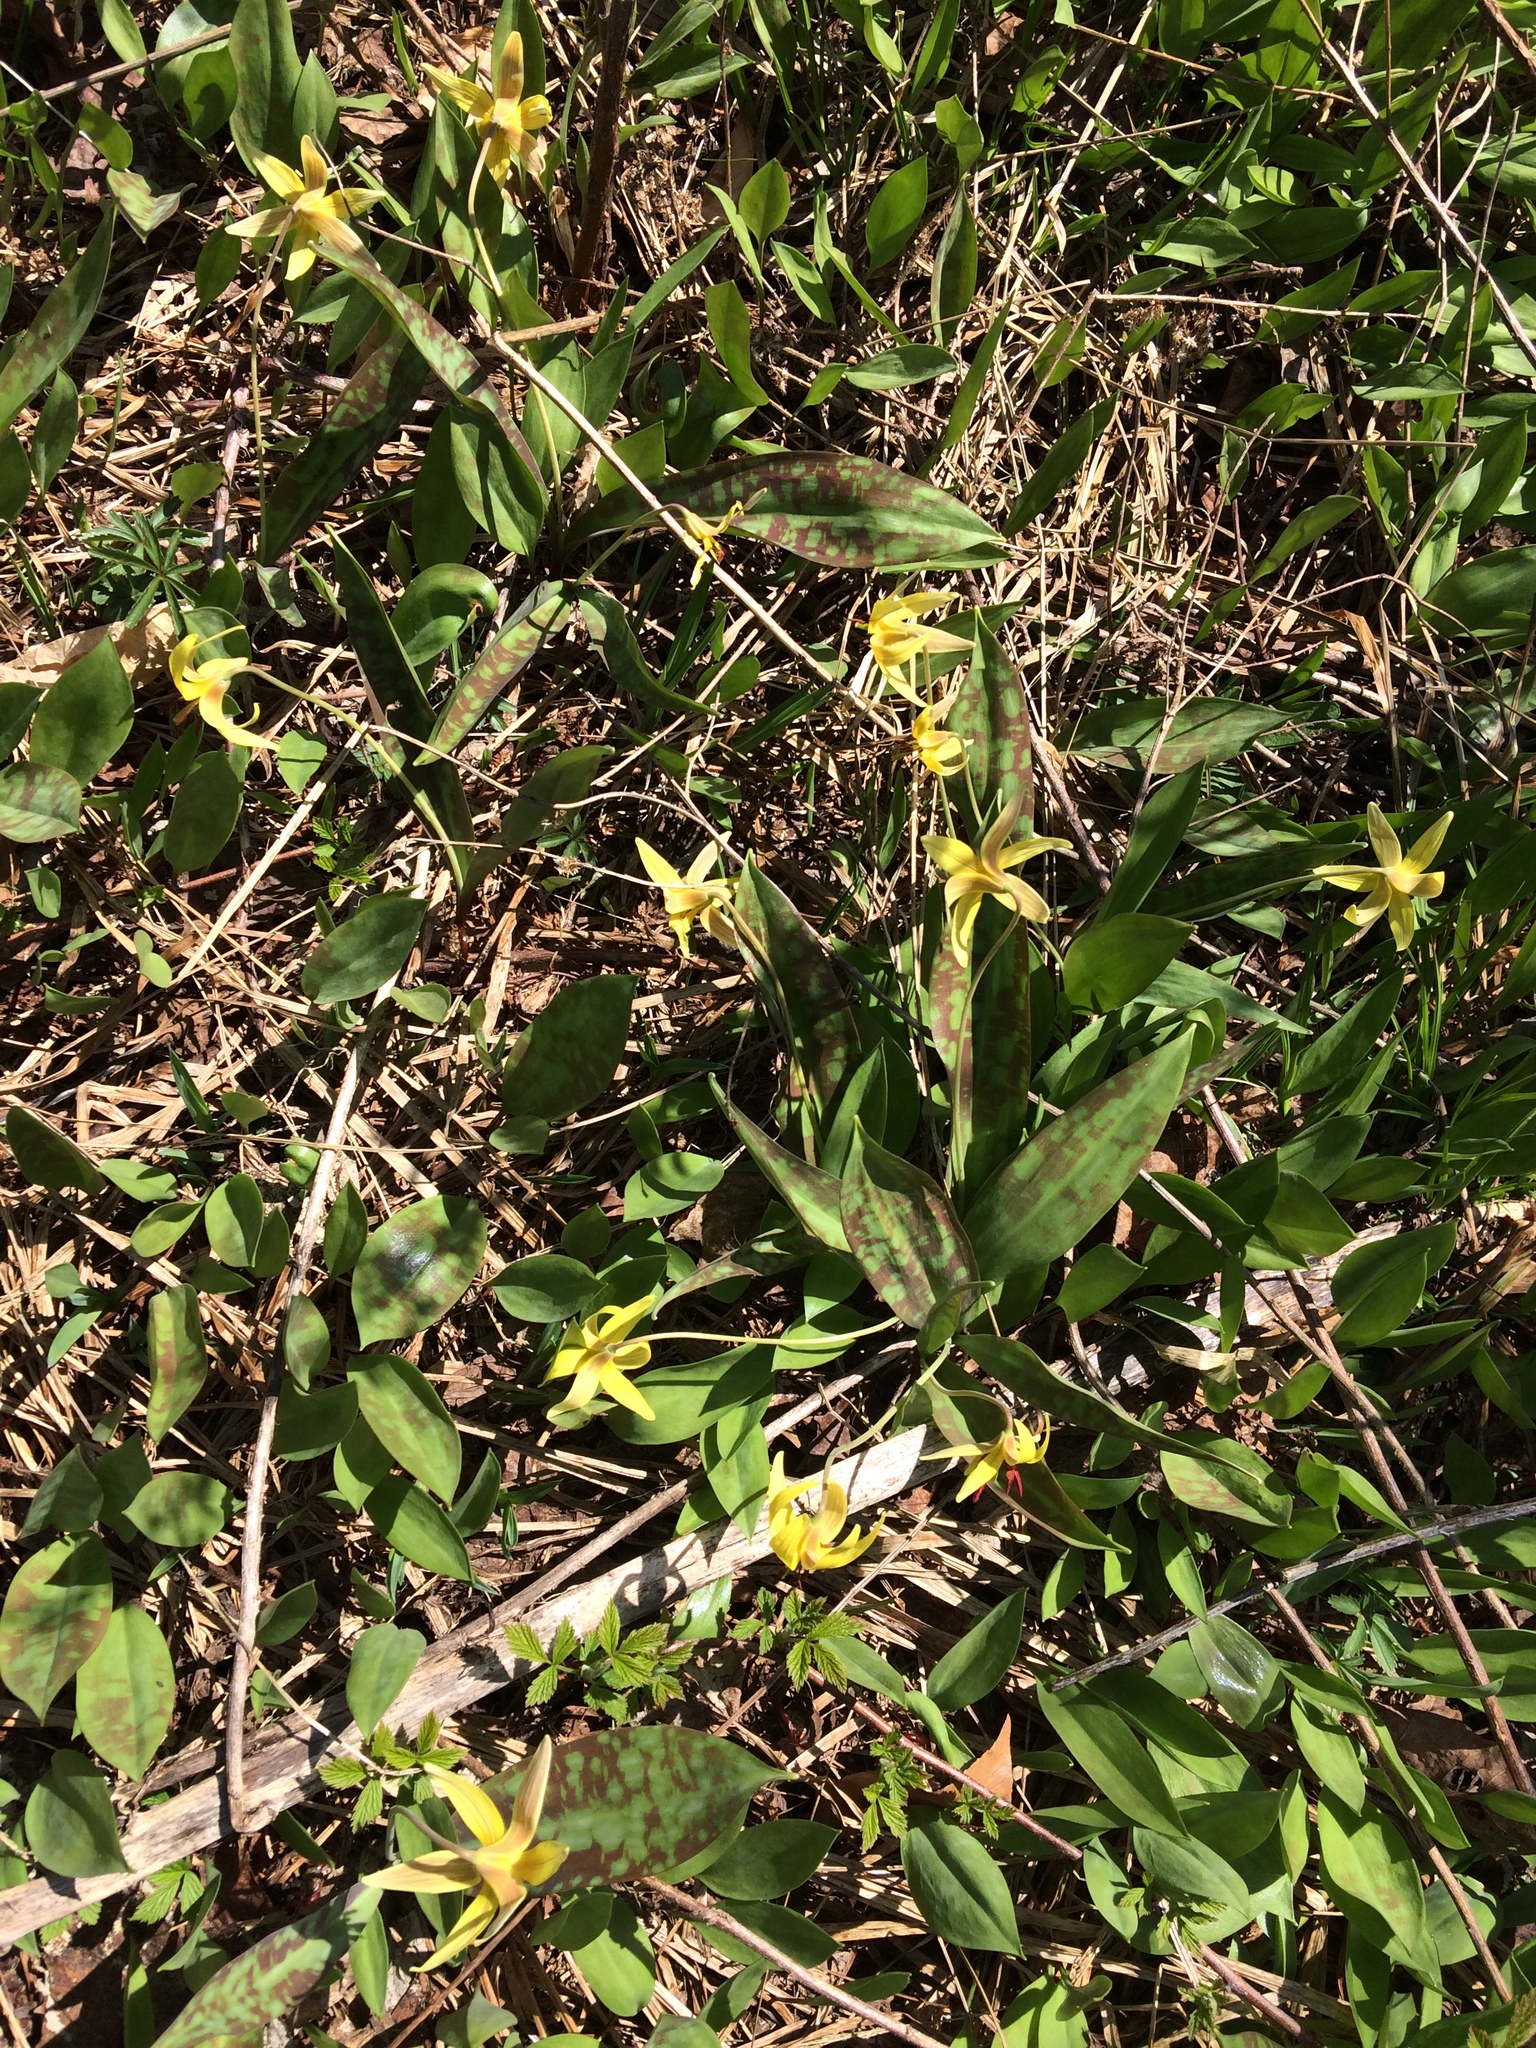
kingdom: Plantae
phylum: Tracheophyta
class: Liliopsida
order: Liliales
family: Liliaceae
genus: Erythronium
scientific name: Erythronium americanum
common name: Yellow adder's-tongue
